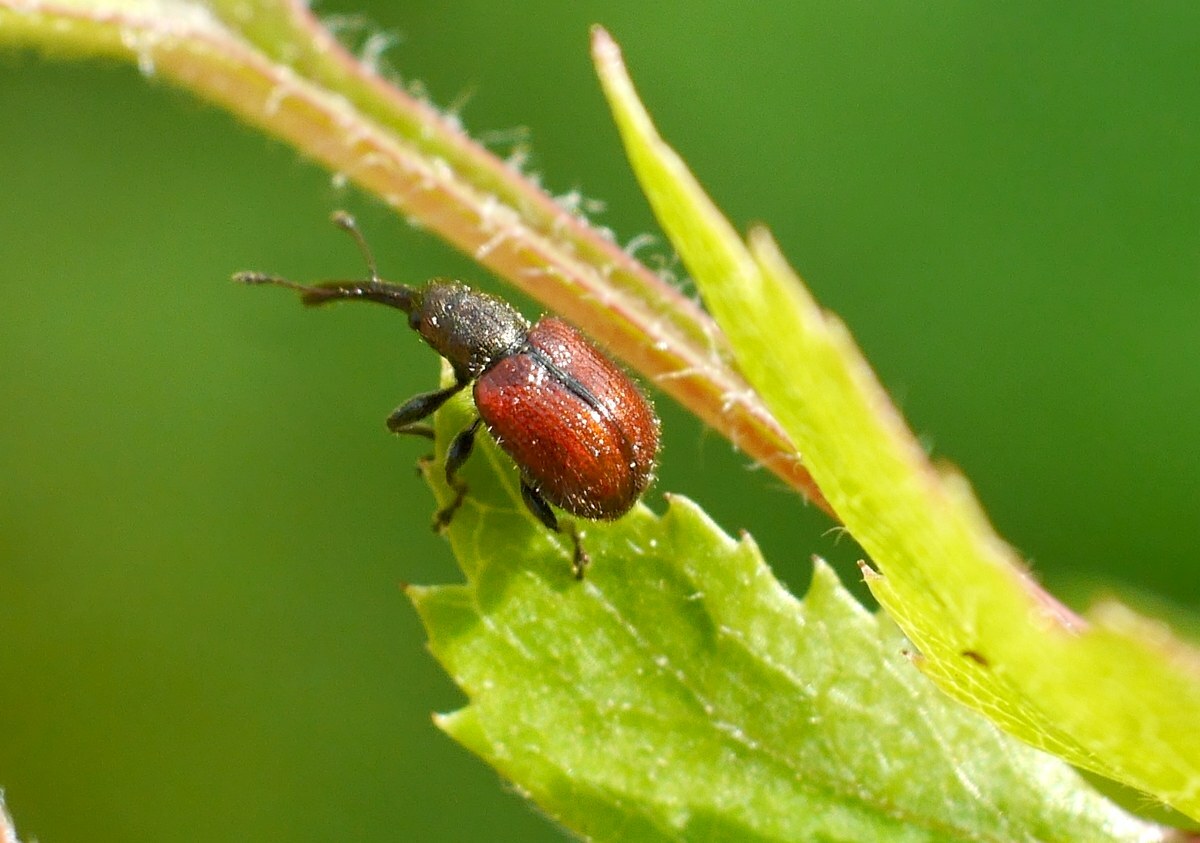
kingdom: Animalia
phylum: Arthropoda
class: Insecta
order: Coleoptera
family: Rhynchitidae
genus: Tatianaerhynchites
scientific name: Tatianaerhynchites aequatus
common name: Apple fruit rhynchites
